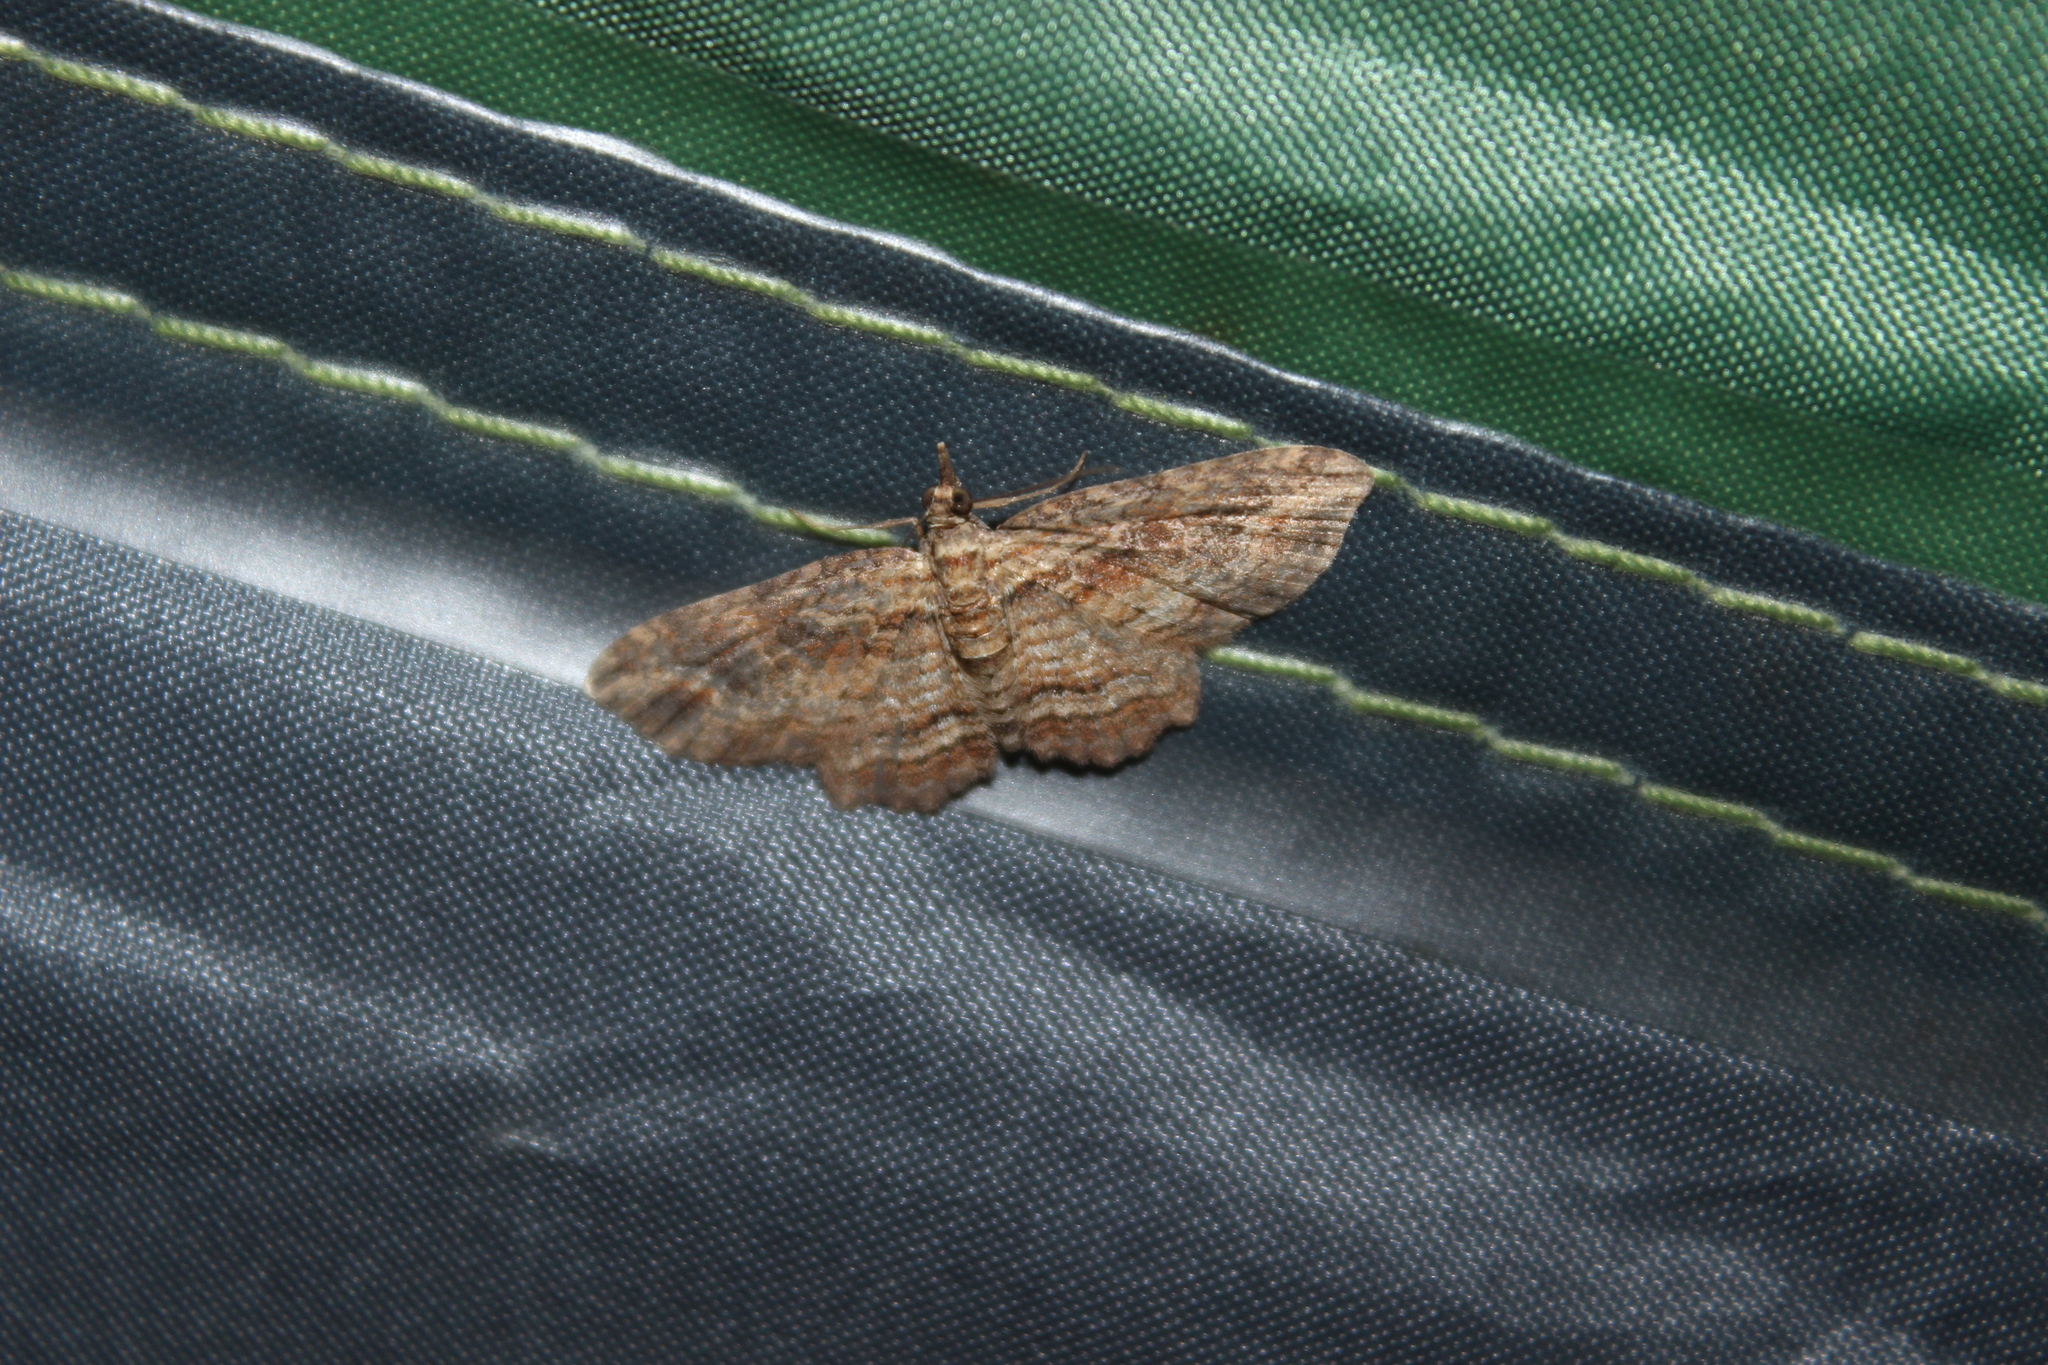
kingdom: Animalia
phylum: Arthropoda
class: Insecta
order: Lepidoptera
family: Geometridae
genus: Chloroclystis
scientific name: Chloroclystis filata
